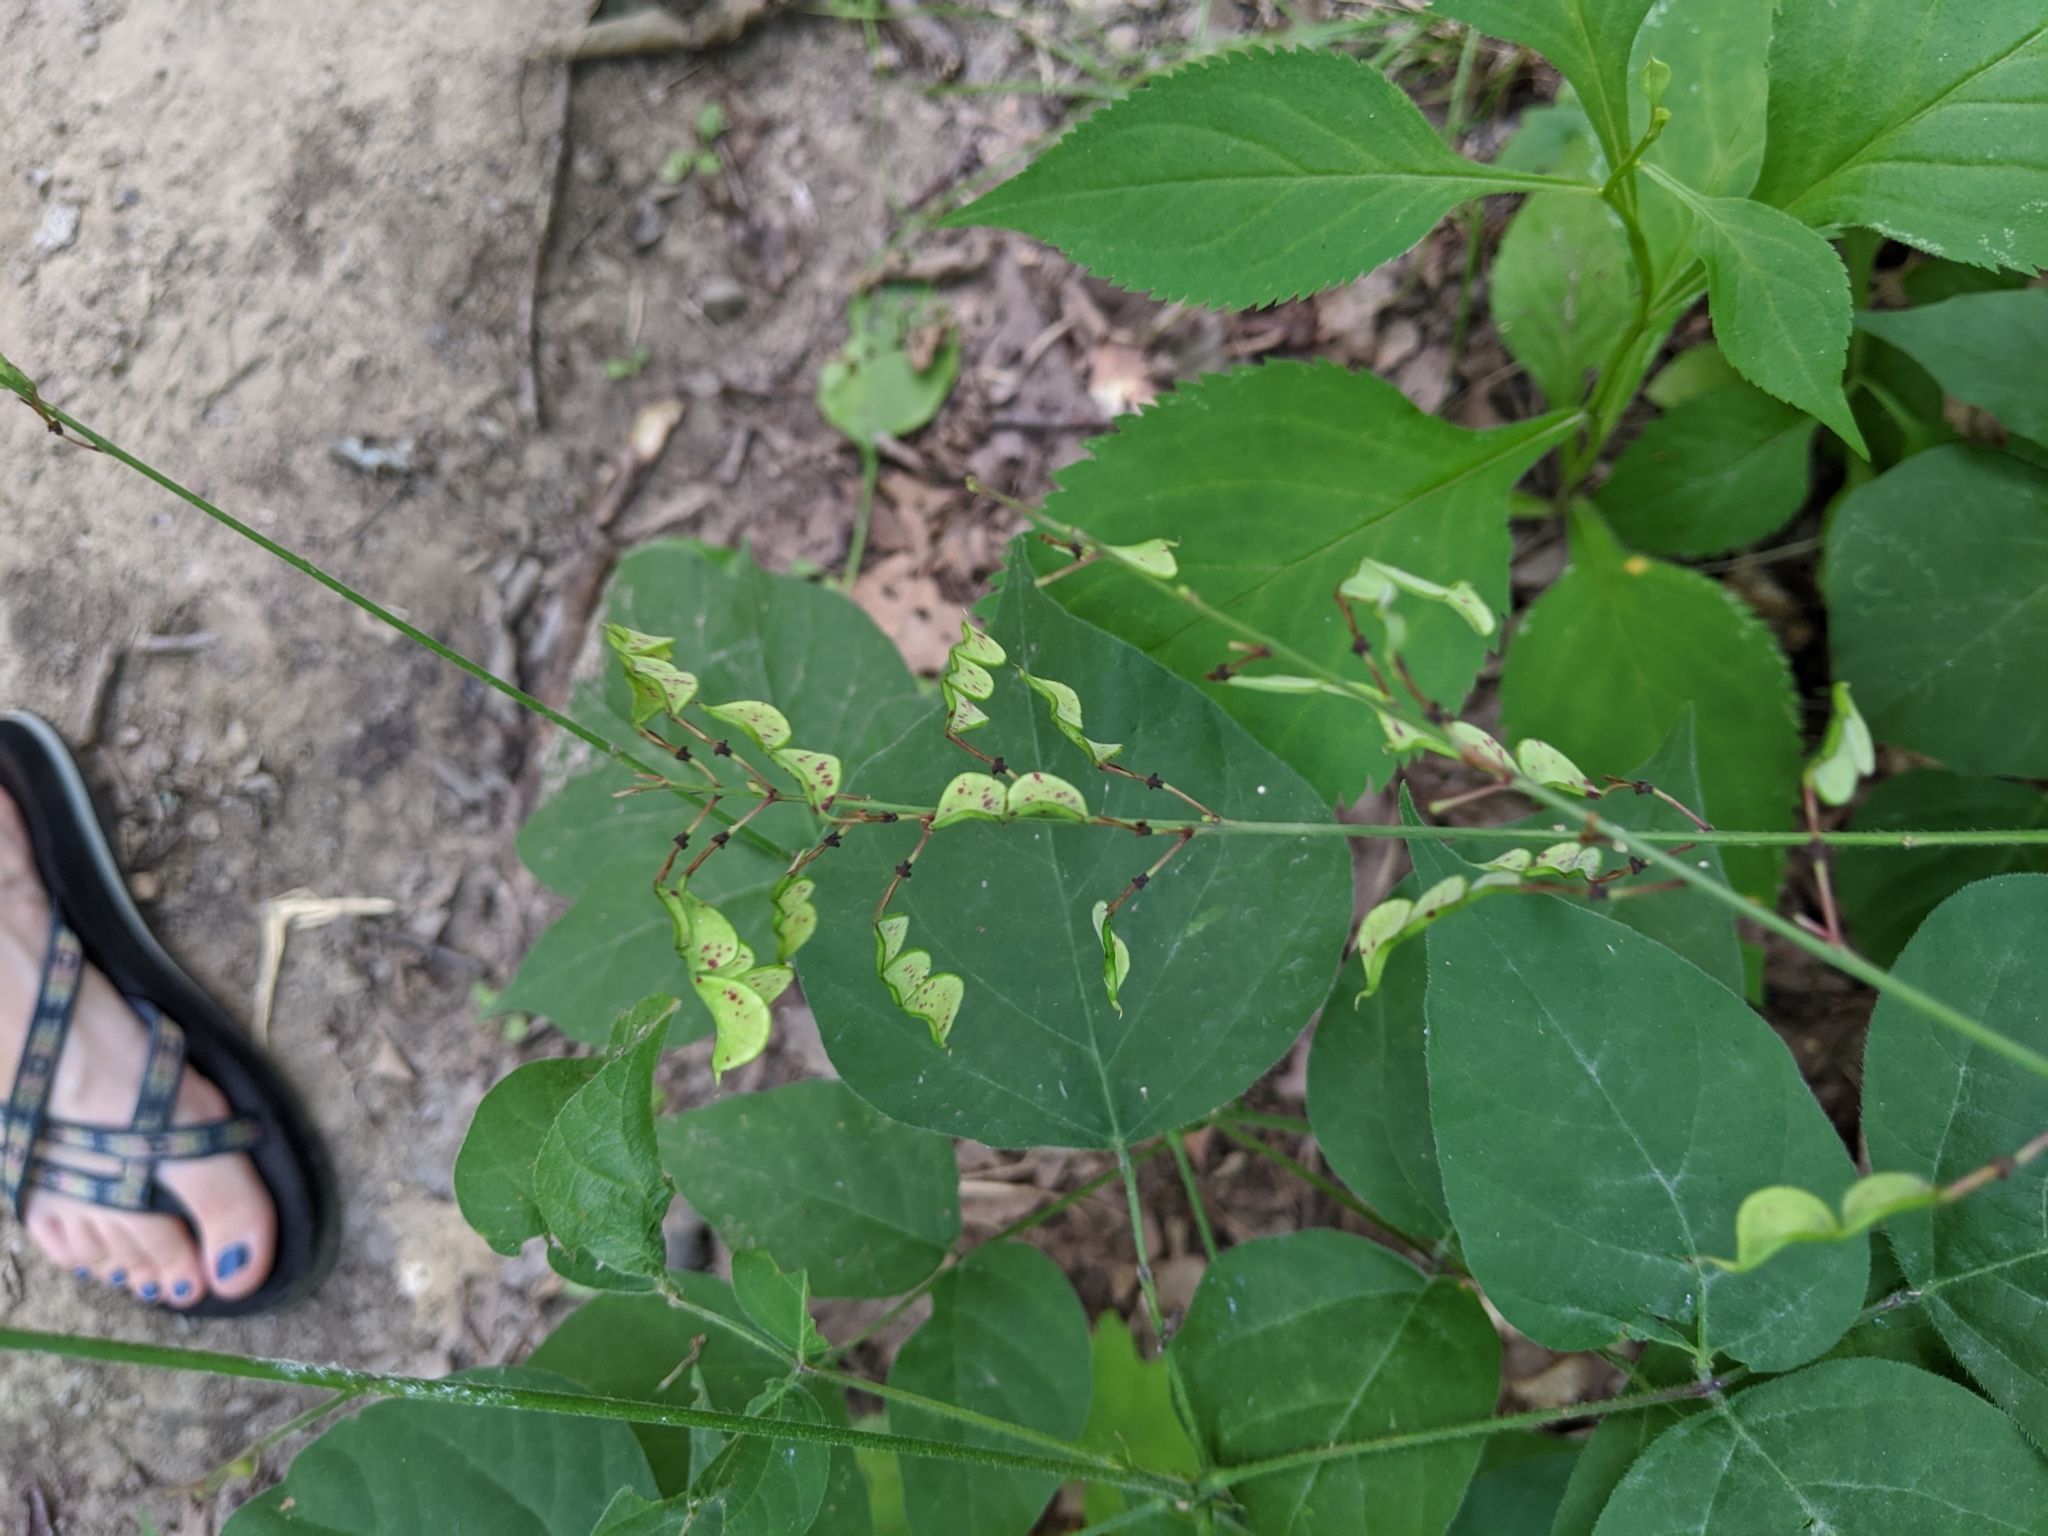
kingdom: Plantae
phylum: Tracheophyta
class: Magnoliopsida
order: Fabales
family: Fabaceae
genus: Hylodesmum
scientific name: Hylodesmum glutinosum
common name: Clustered-leaved tick-trefoil
